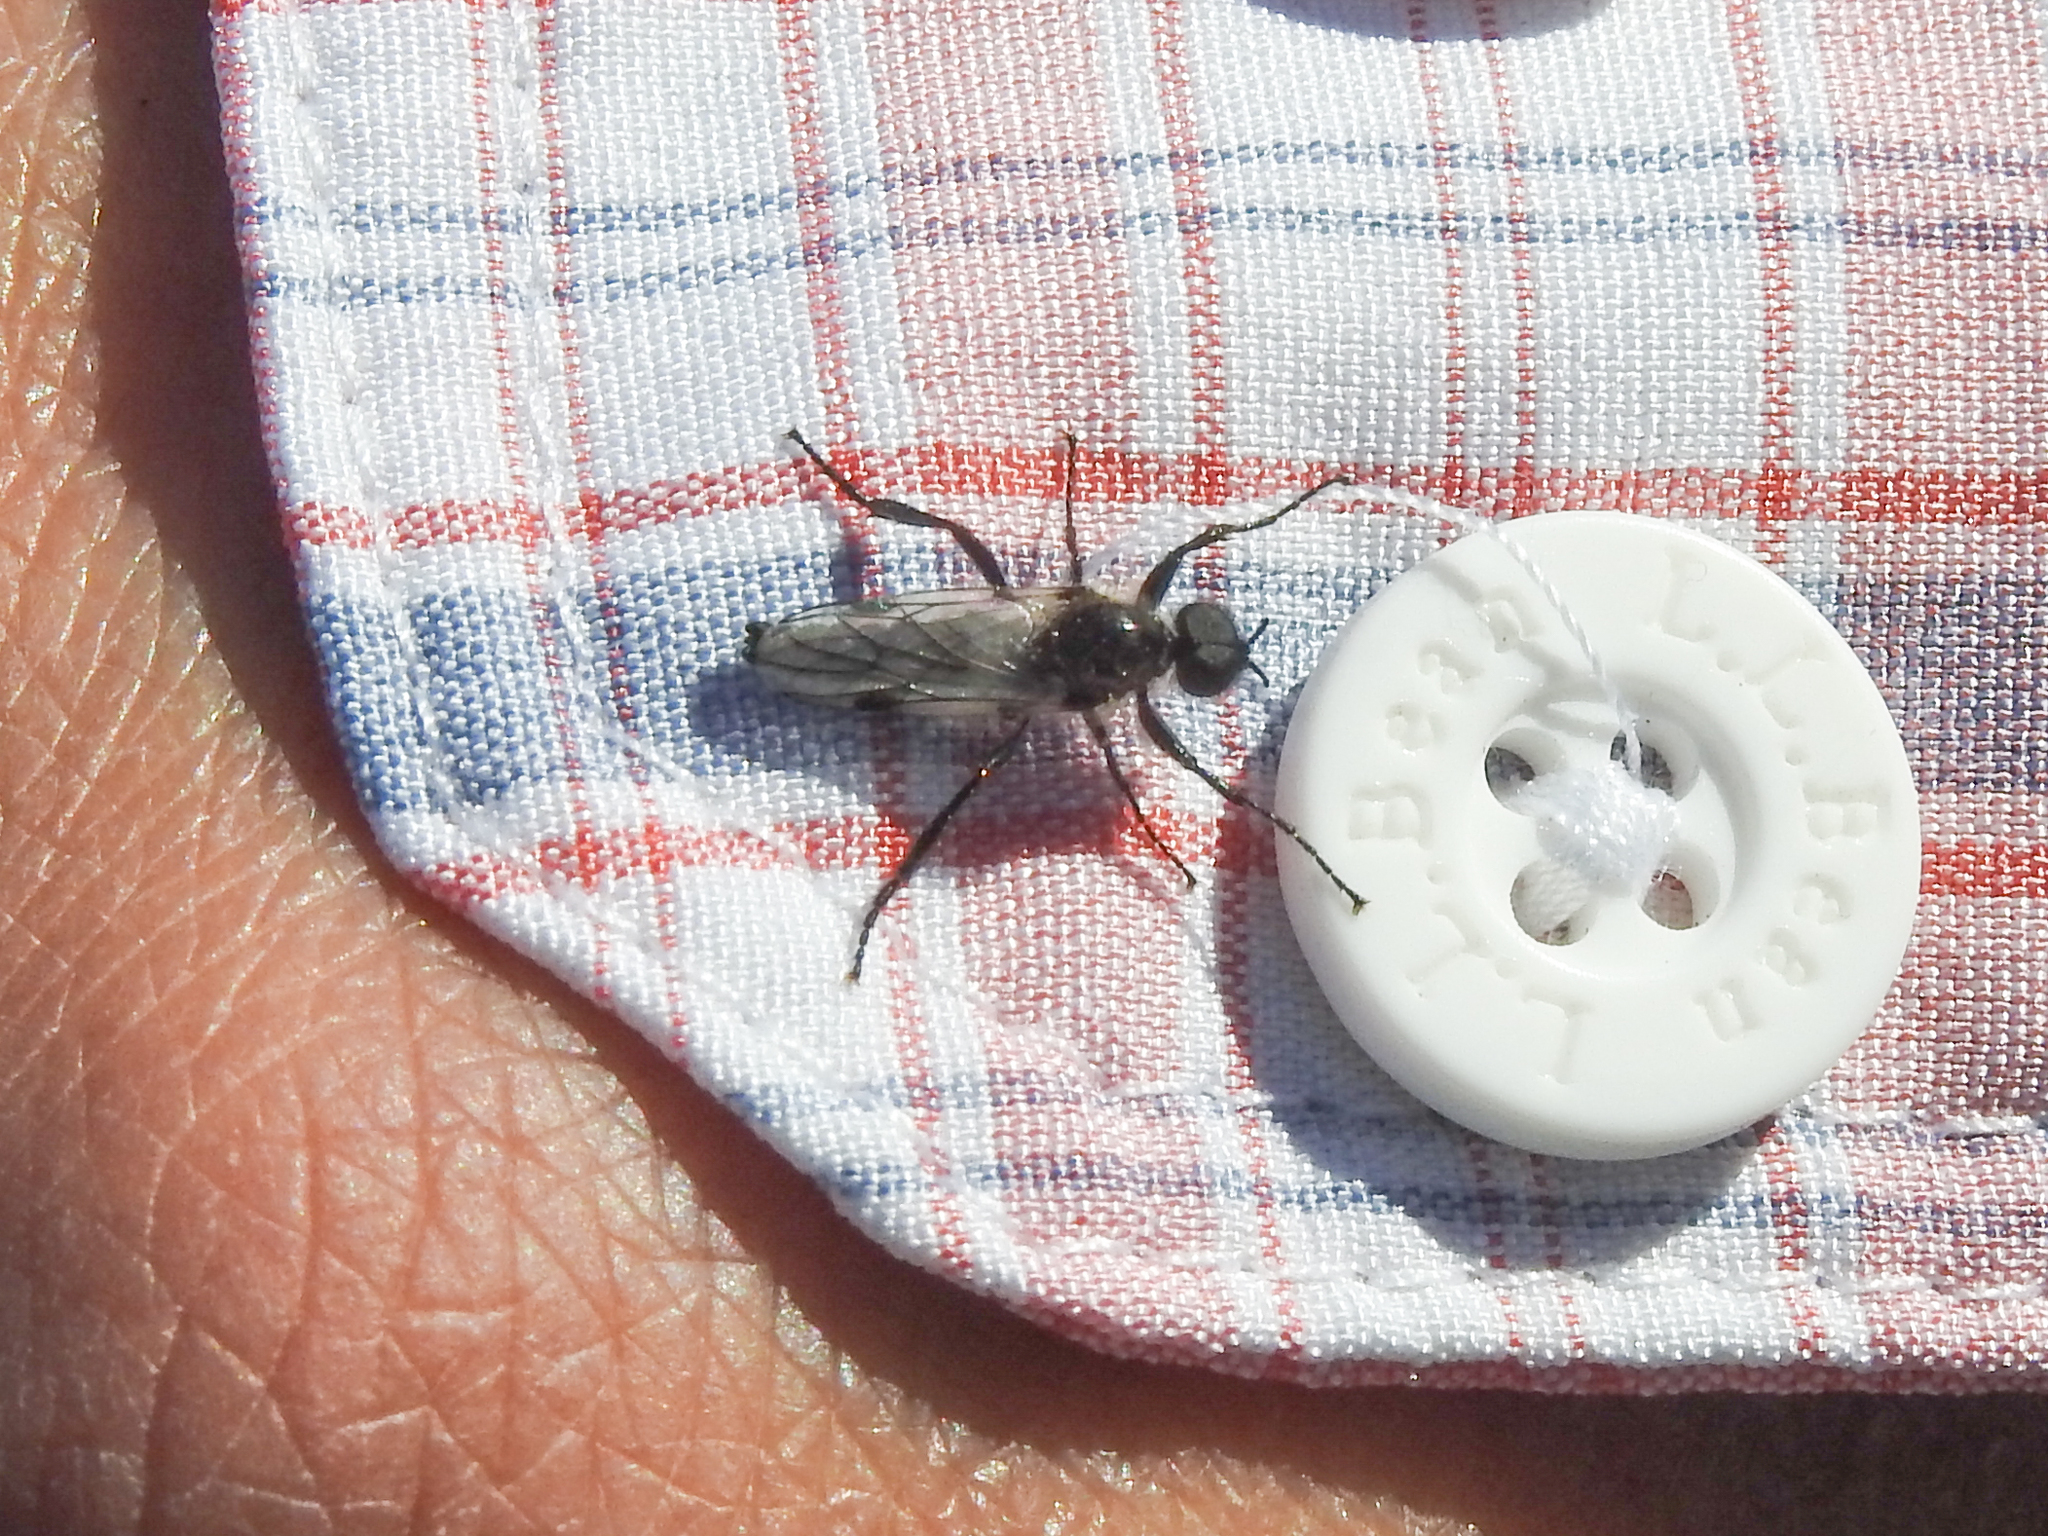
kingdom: Animalia
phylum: Arthropoda
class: Insecta
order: Diptera
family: Bibionidae
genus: Bibio
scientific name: Bibio albipennis
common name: White-winged march fly
